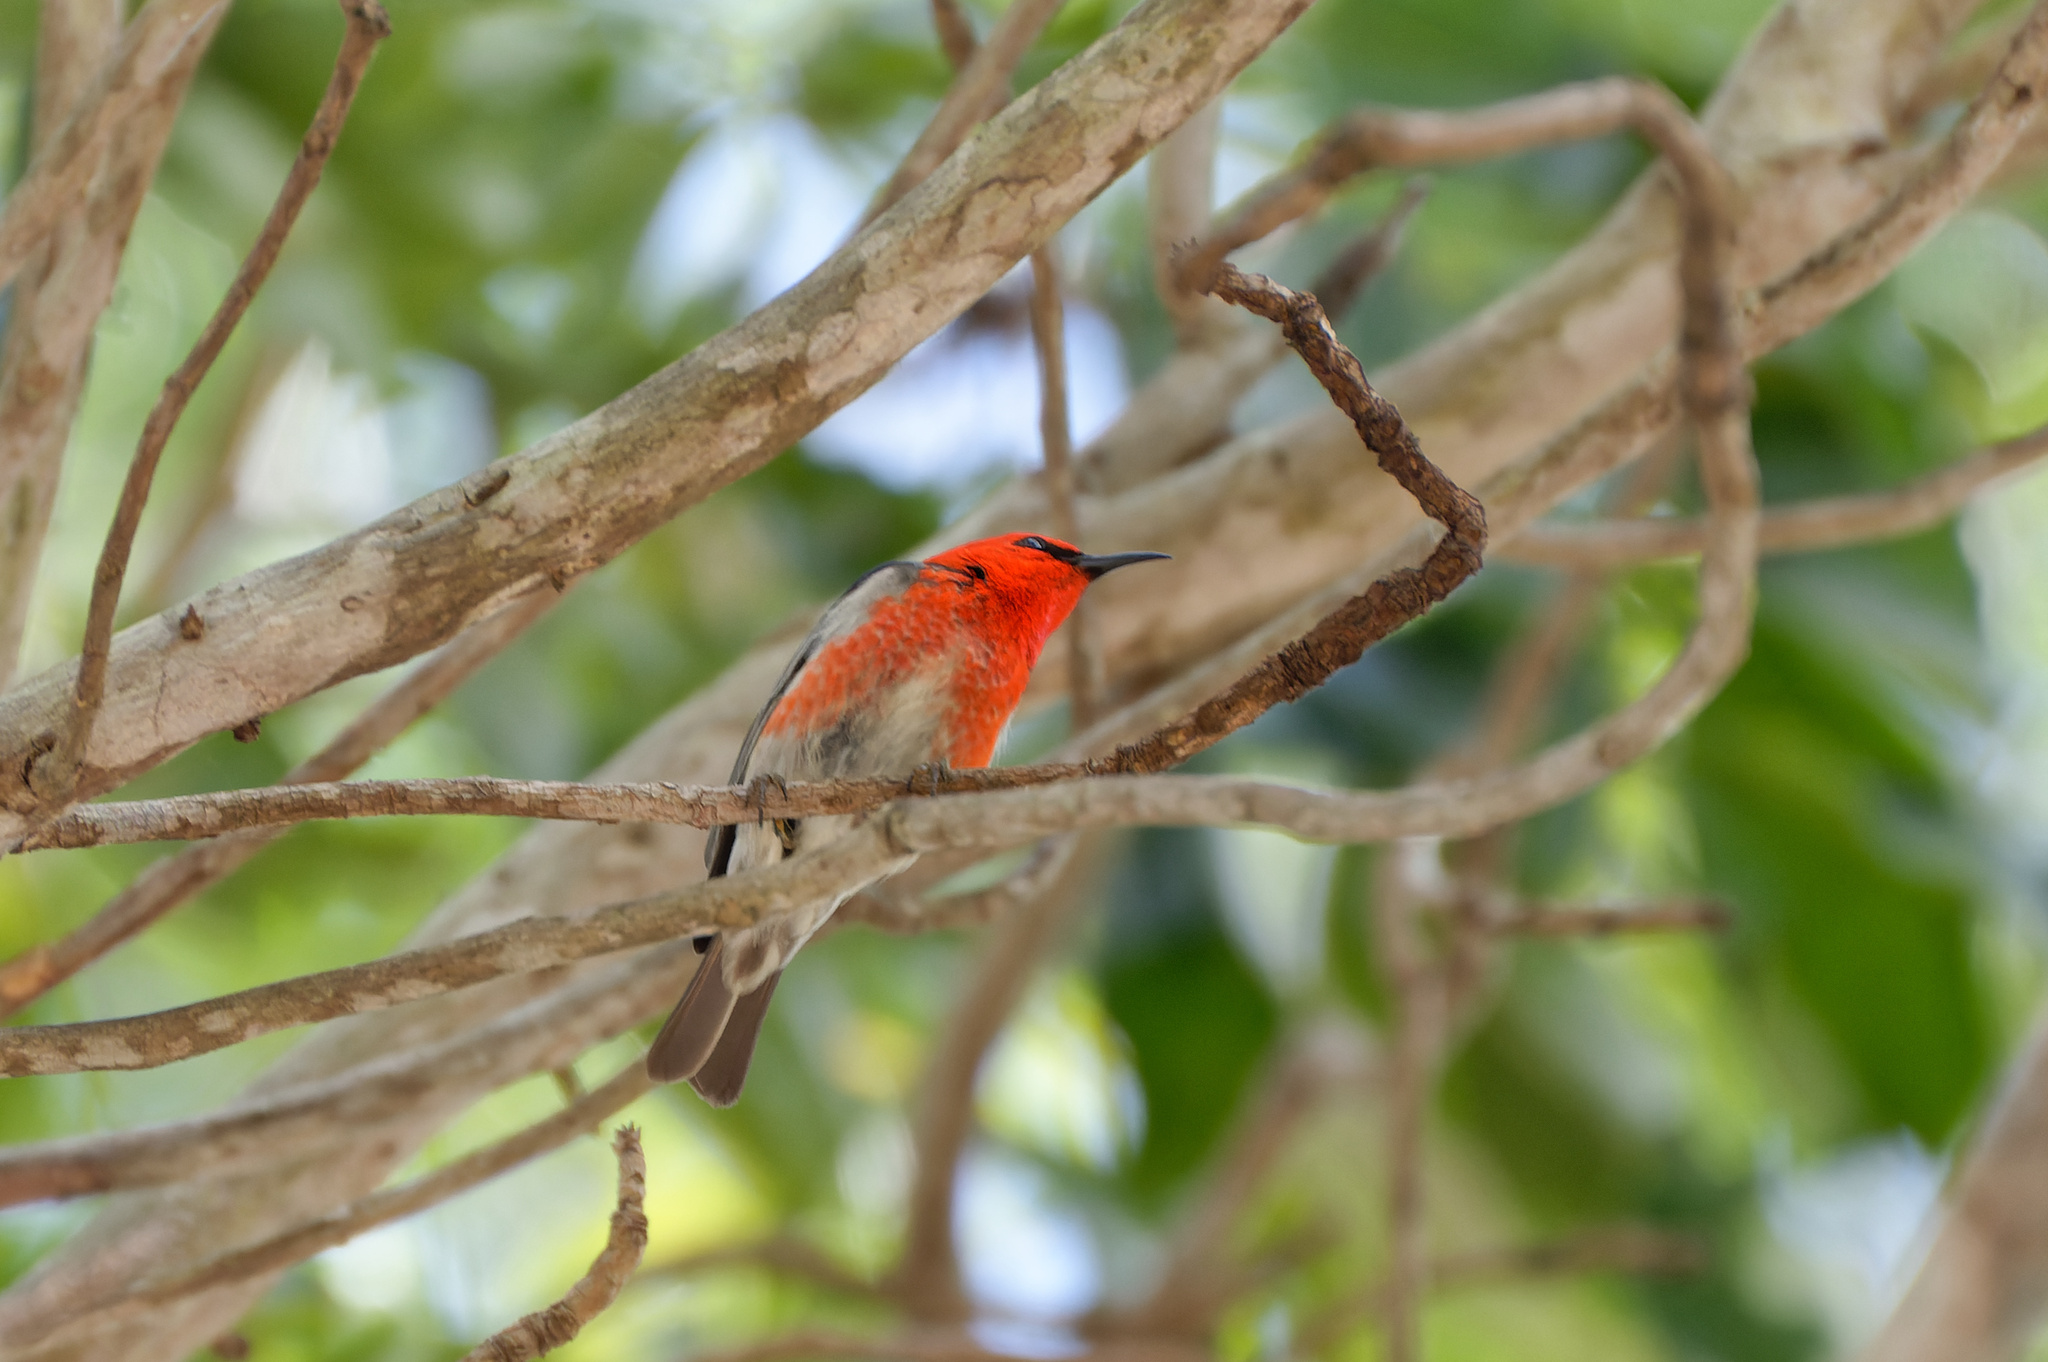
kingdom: Animalia
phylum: Chordata
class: Aves
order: Passeriformes
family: Meliphagidae
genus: Myzomela
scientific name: Myzomela sanguinolenta
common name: Scarlet myzomela
